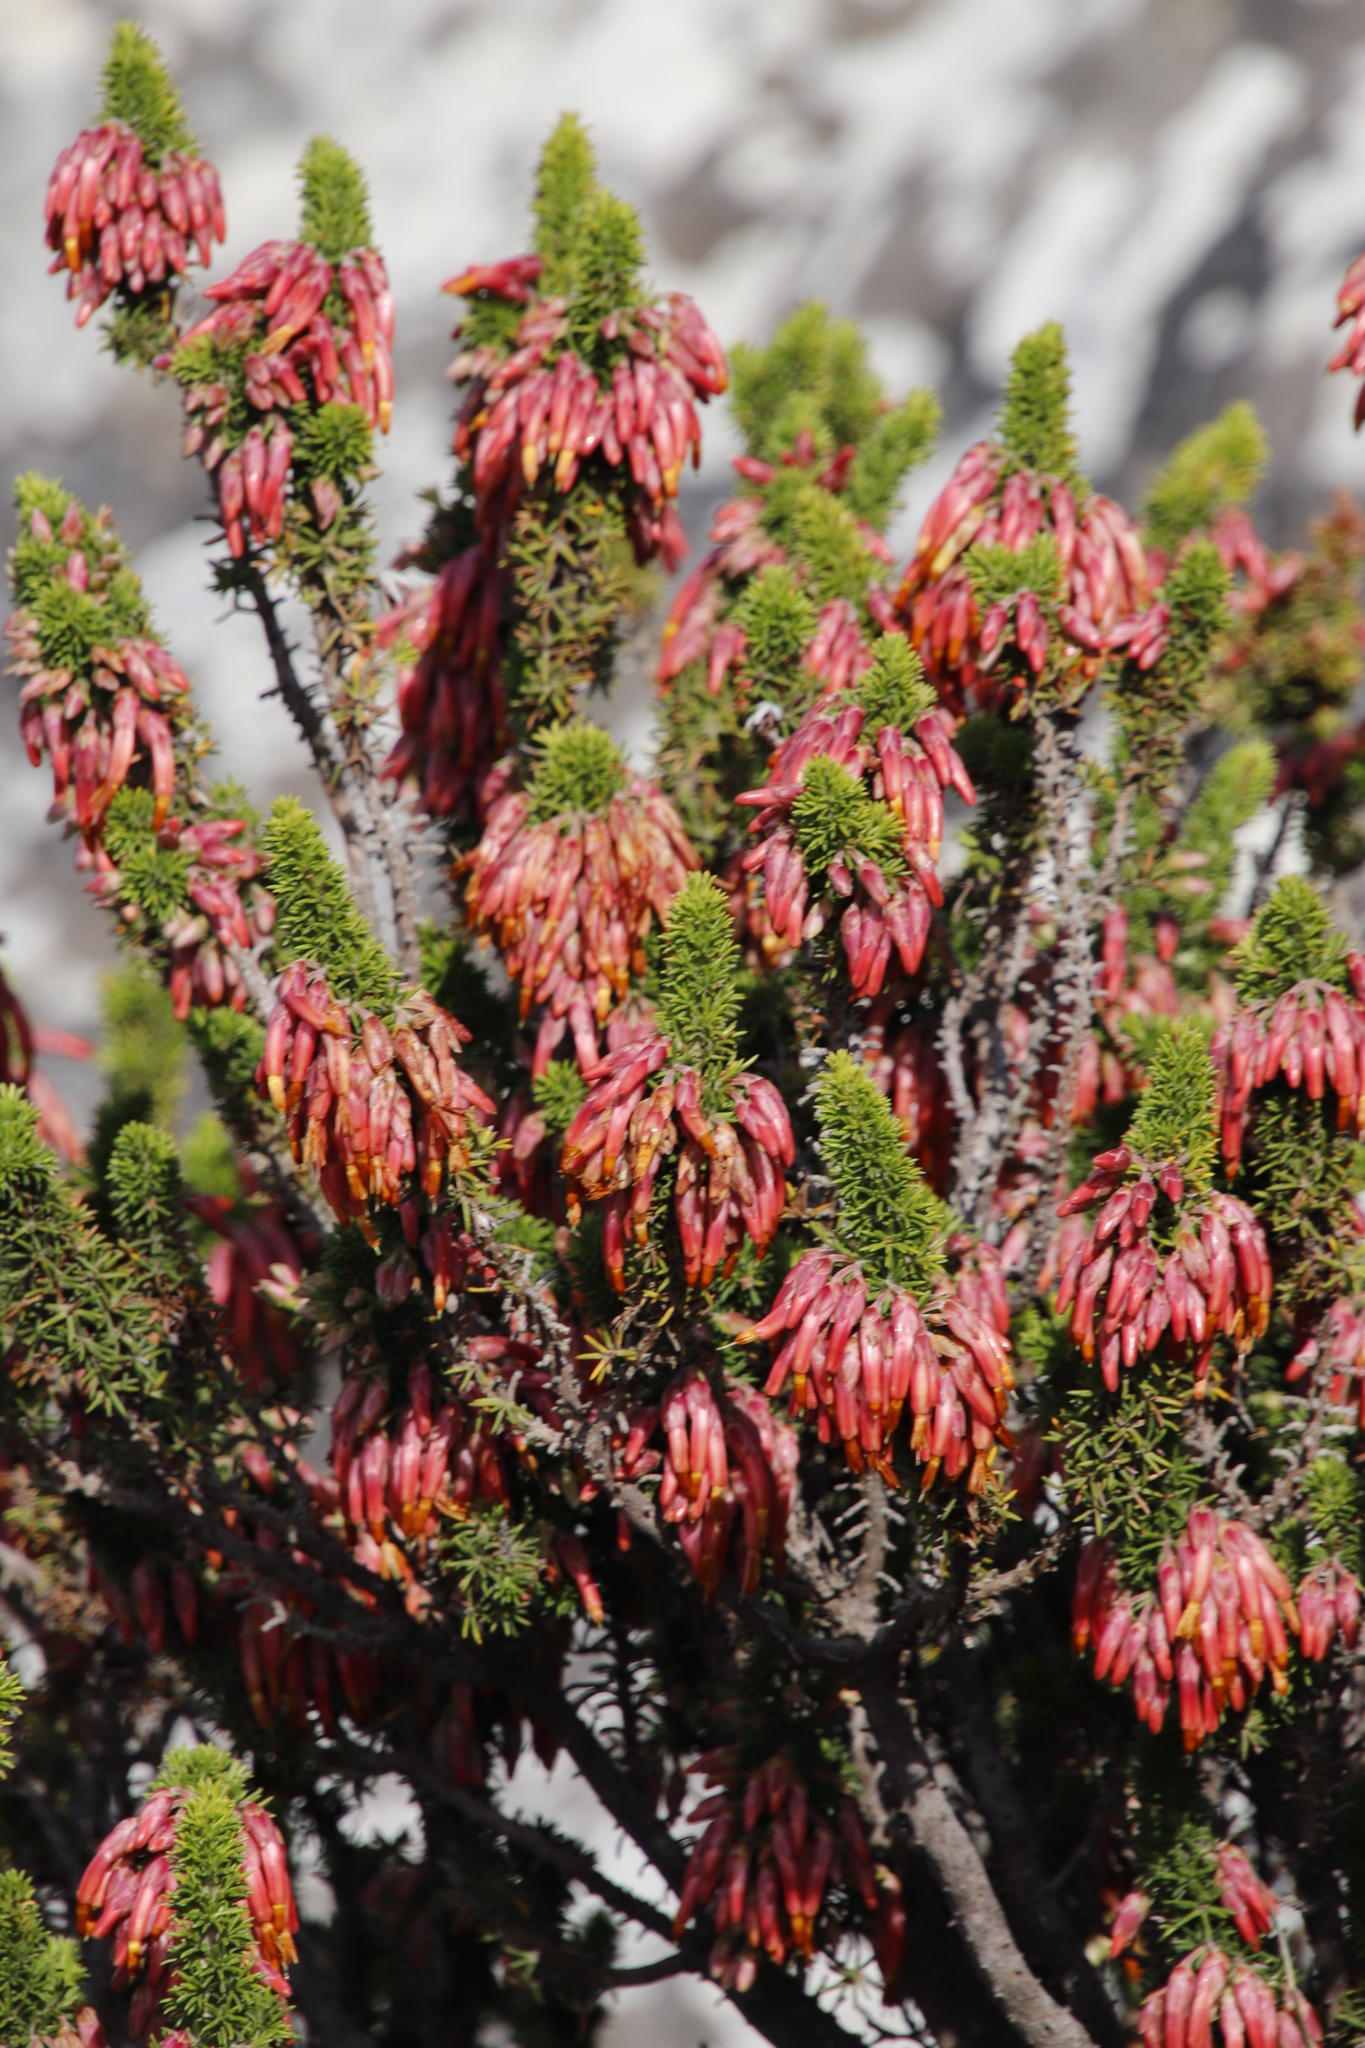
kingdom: Plantae
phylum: Tracheophyta
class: Magnoliopsida
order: Ericales
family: Ericaceae
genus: Erica
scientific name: Erica coccinea
